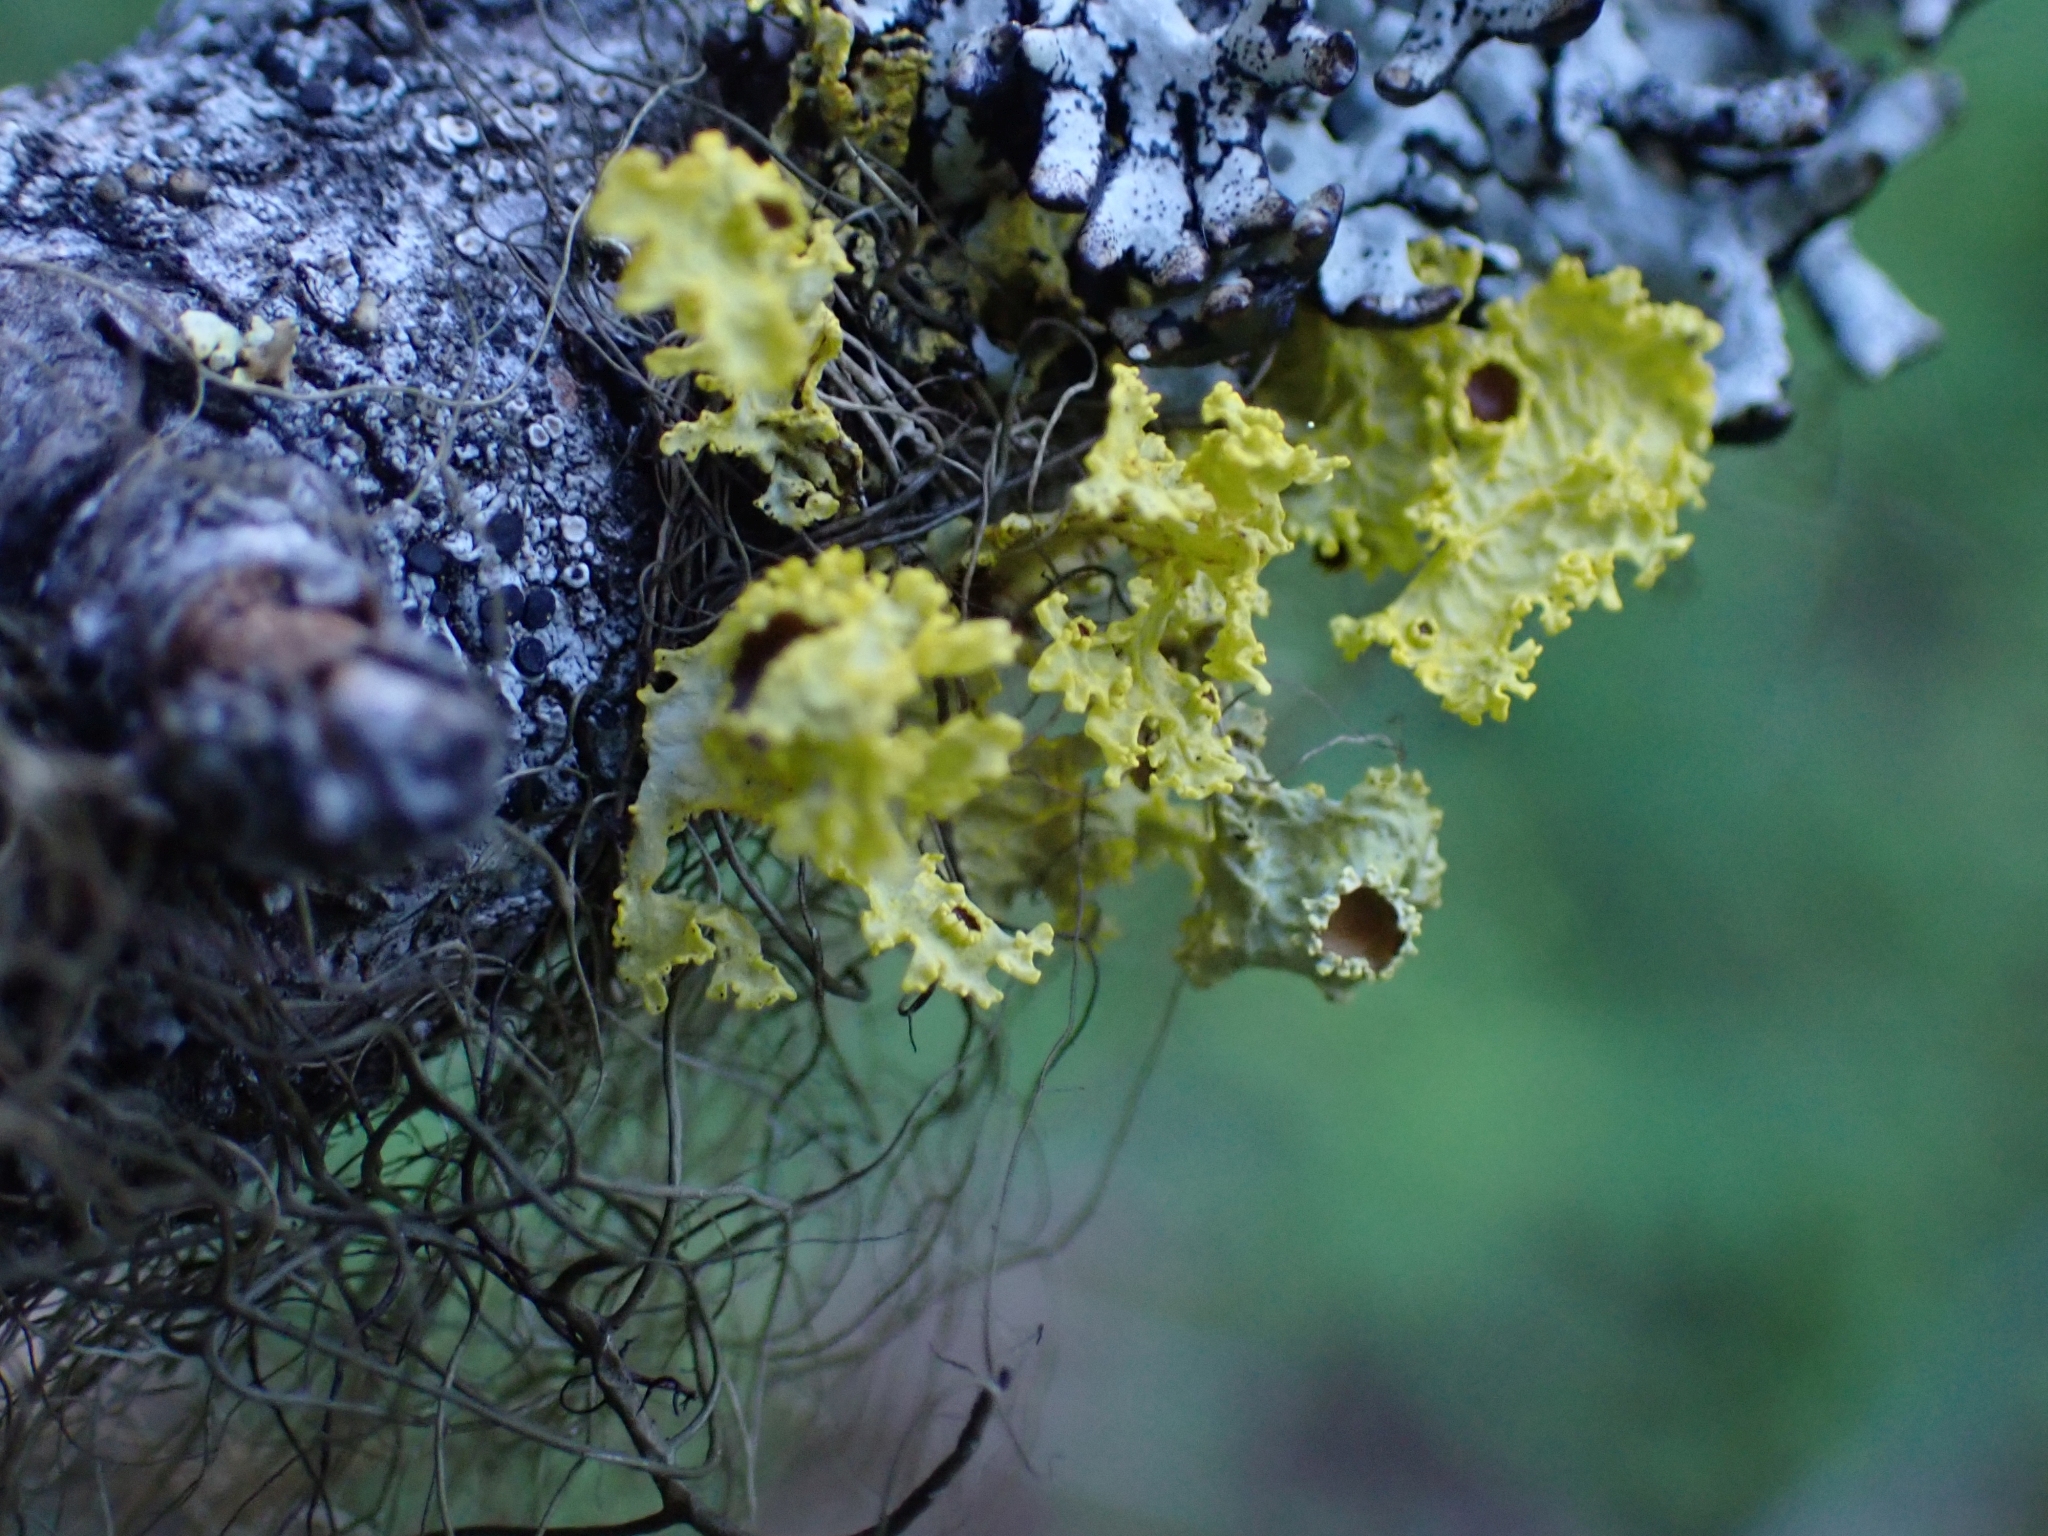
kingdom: Fungi
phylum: Ascomycota
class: Lecanoromycetes
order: Lecanorales
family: Parmeliaceae
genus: Vulpicida
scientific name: Vulpicida canadensis
